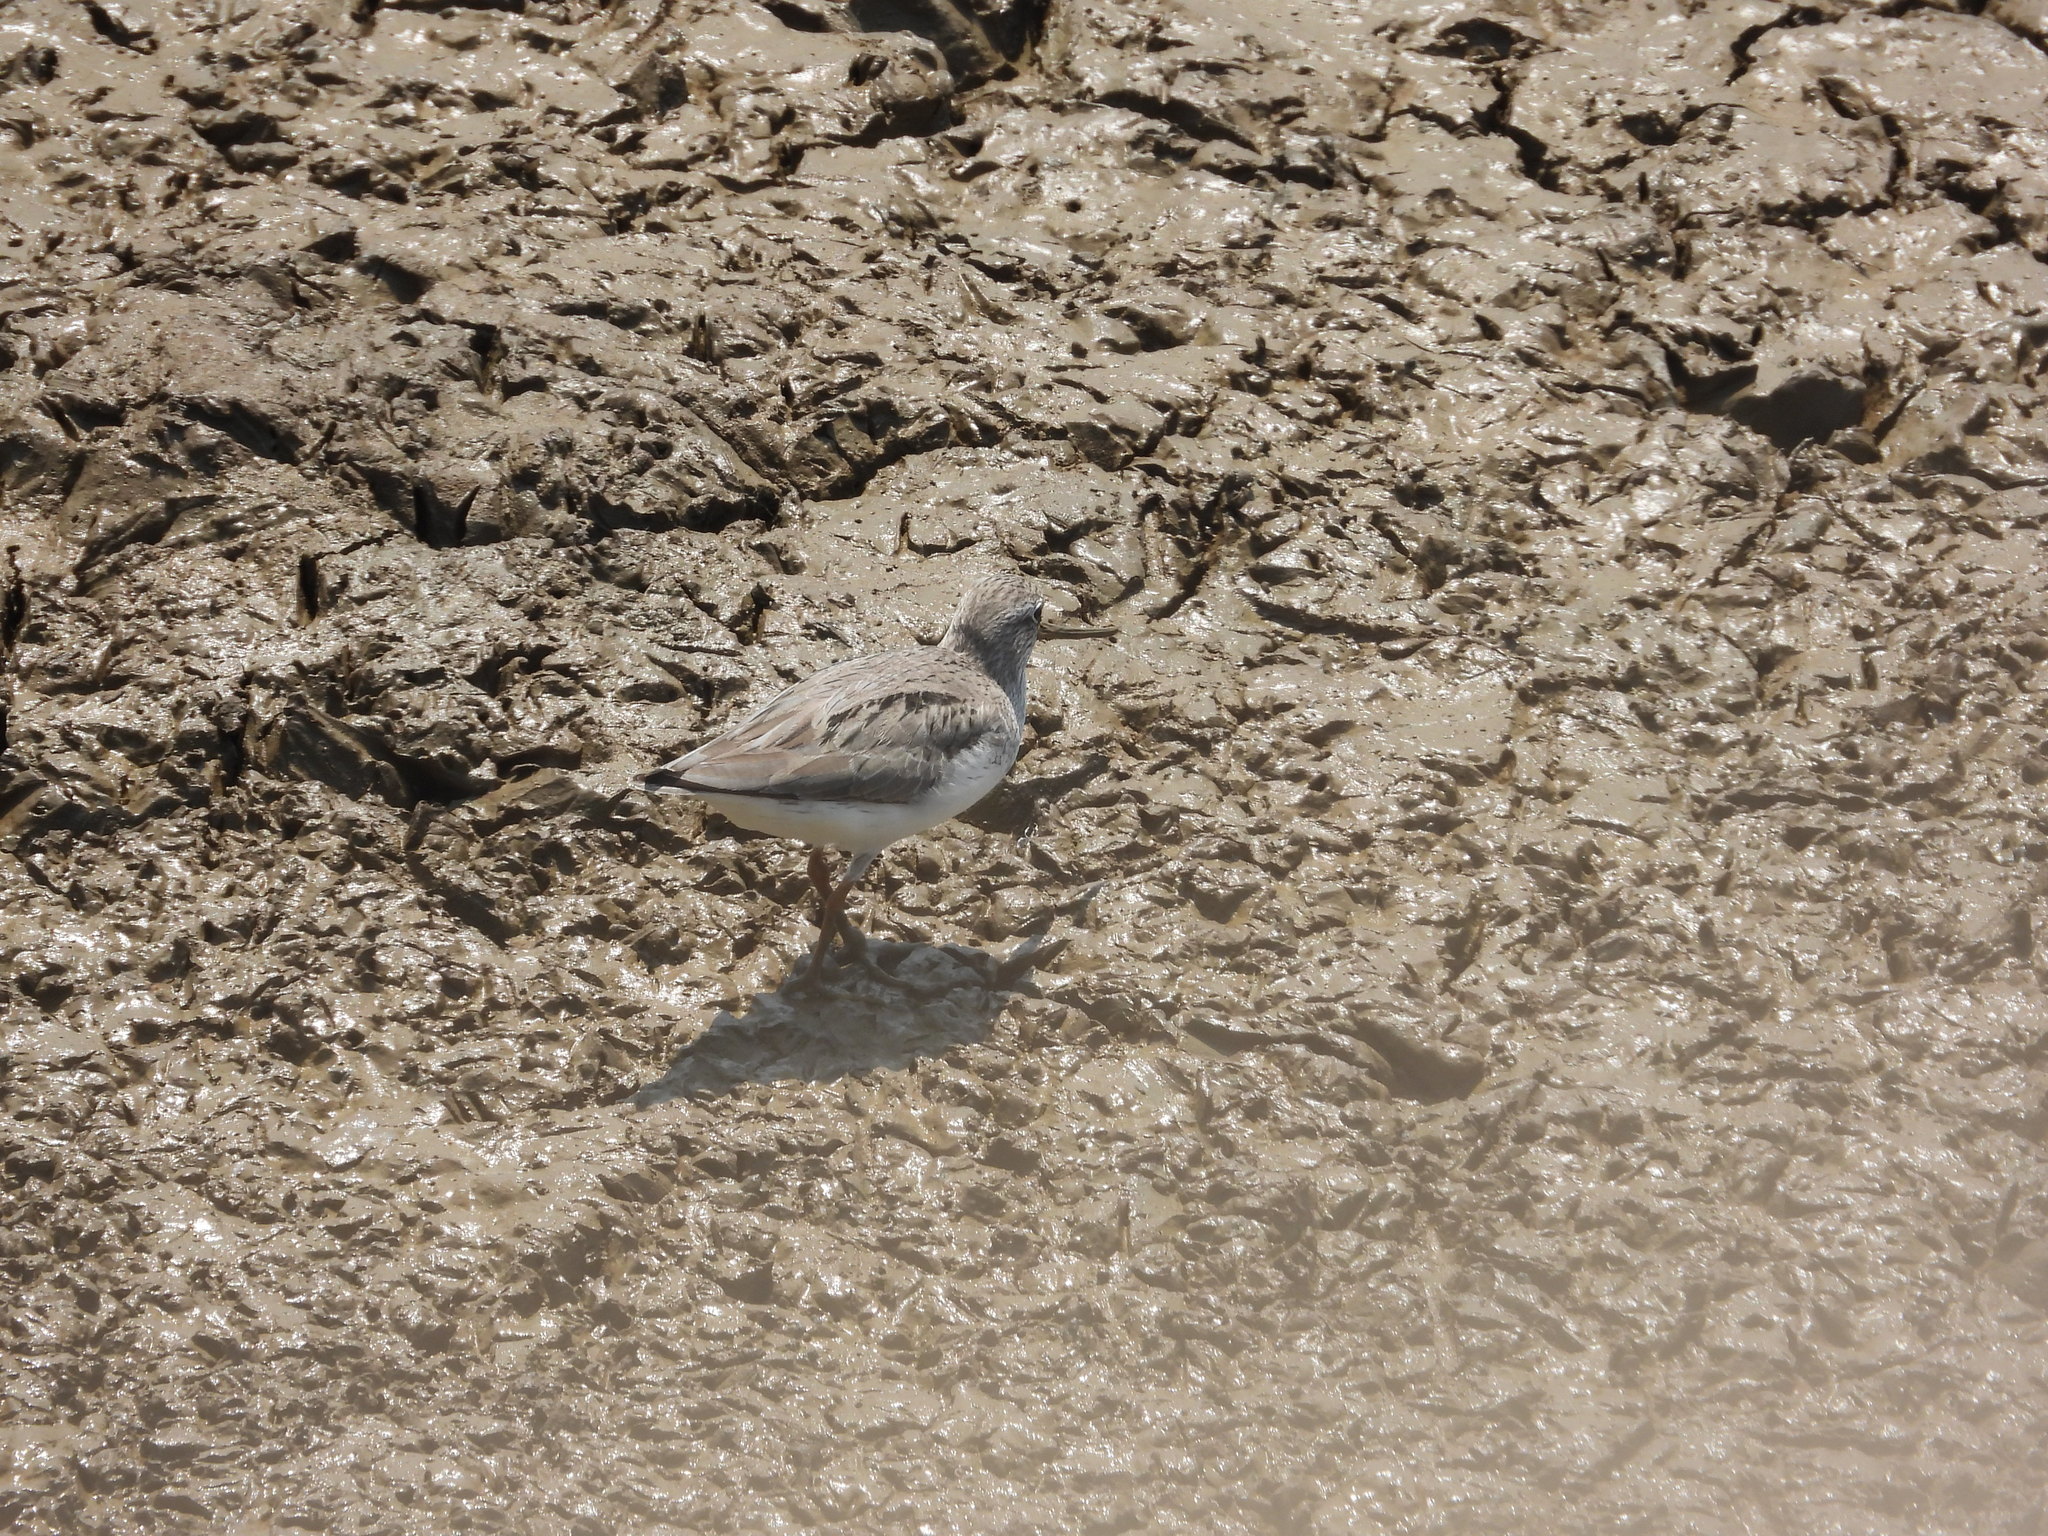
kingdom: Animalia
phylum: Chordata
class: Aves
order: Charadriiformes
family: Scolopacidae
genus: Xenus
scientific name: Xenus cinereus
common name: Terek sandpiper
